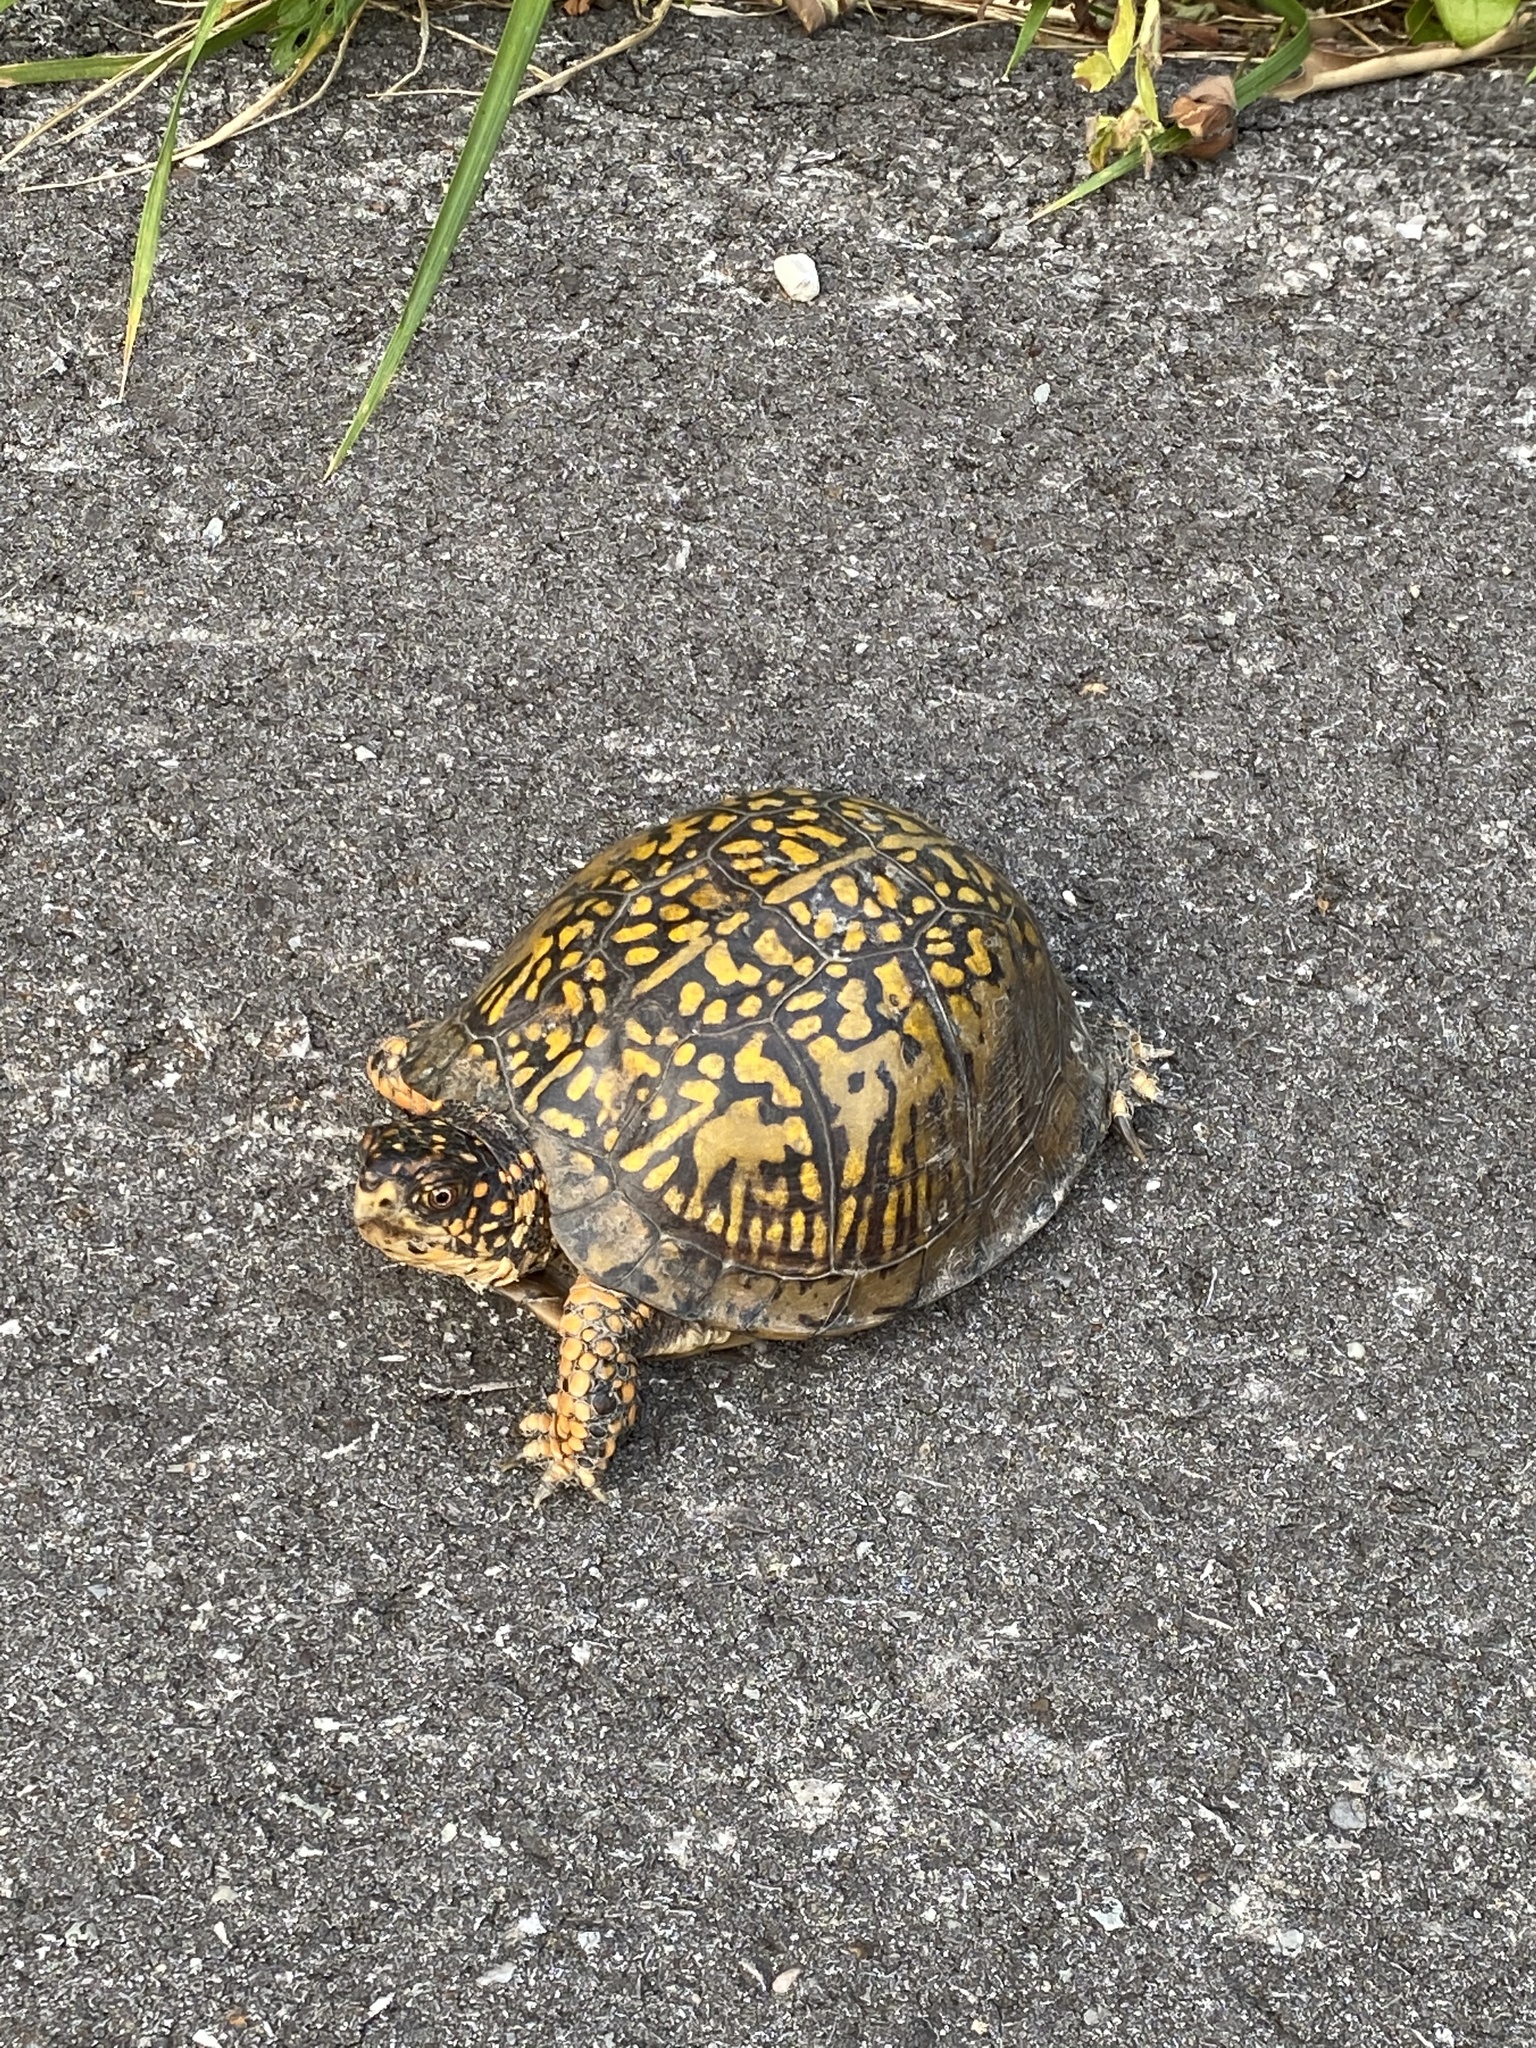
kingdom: Animalia
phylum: Chordata
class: Testudines
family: Emydidae
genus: Terrapene
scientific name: Terrapene carolina
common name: Common box turtle
